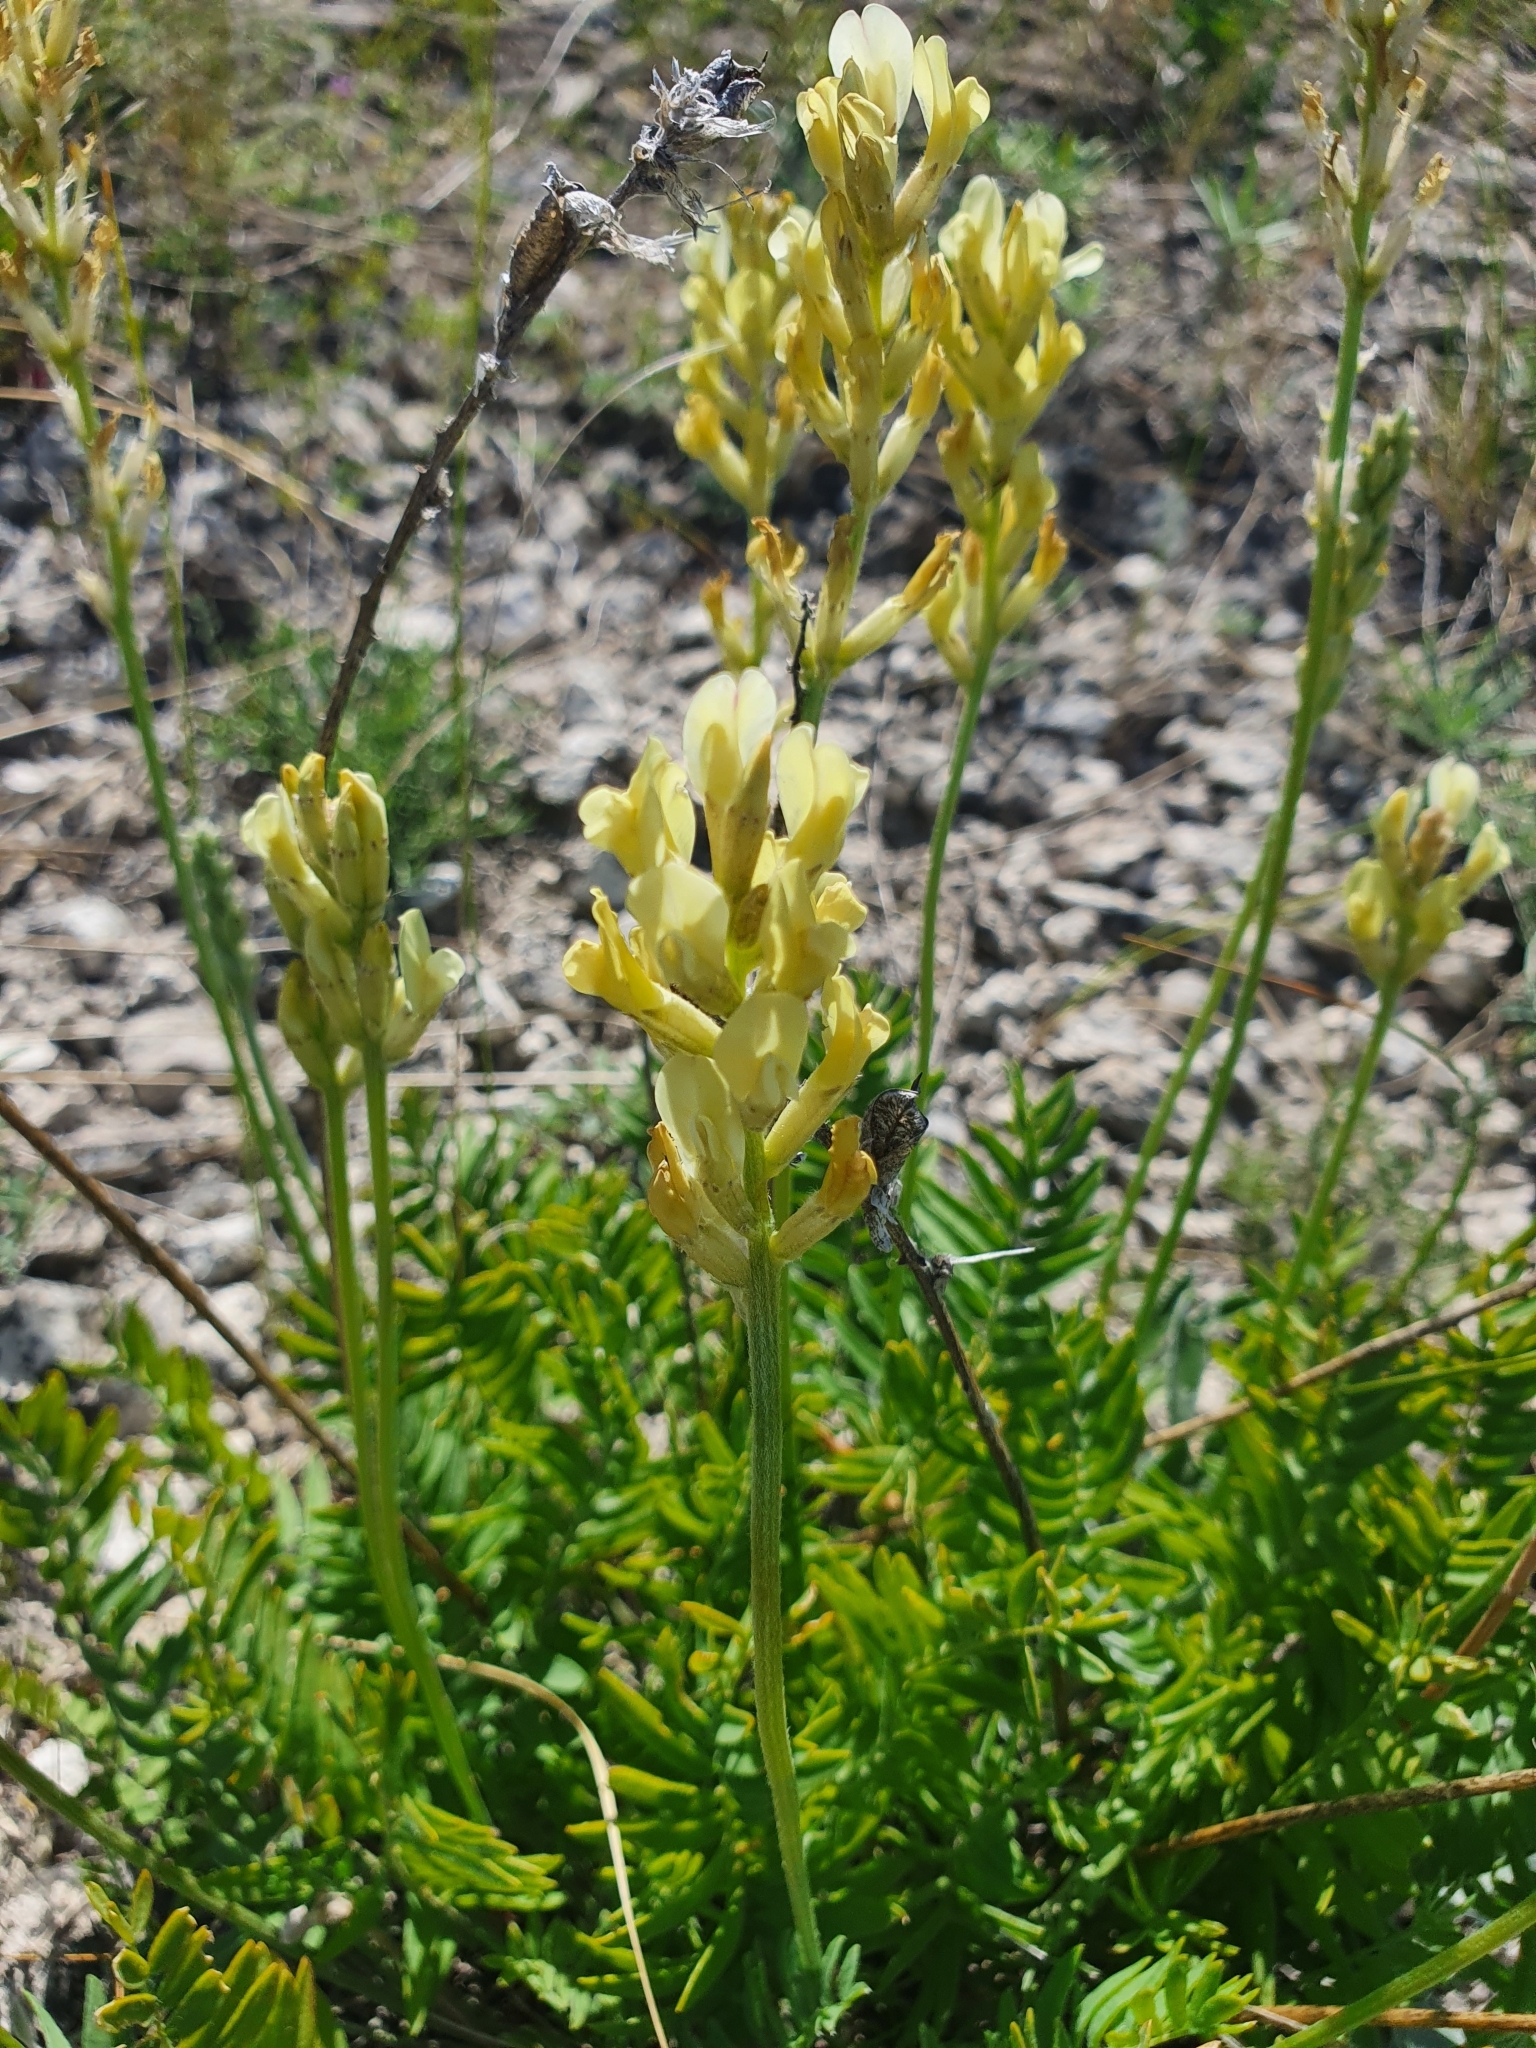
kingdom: Plantae
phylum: Tracheophyta
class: Magnoliopsida
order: Fabales
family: Fabaceae
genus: Oxytropis
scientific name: Oxytropis hippolyti
